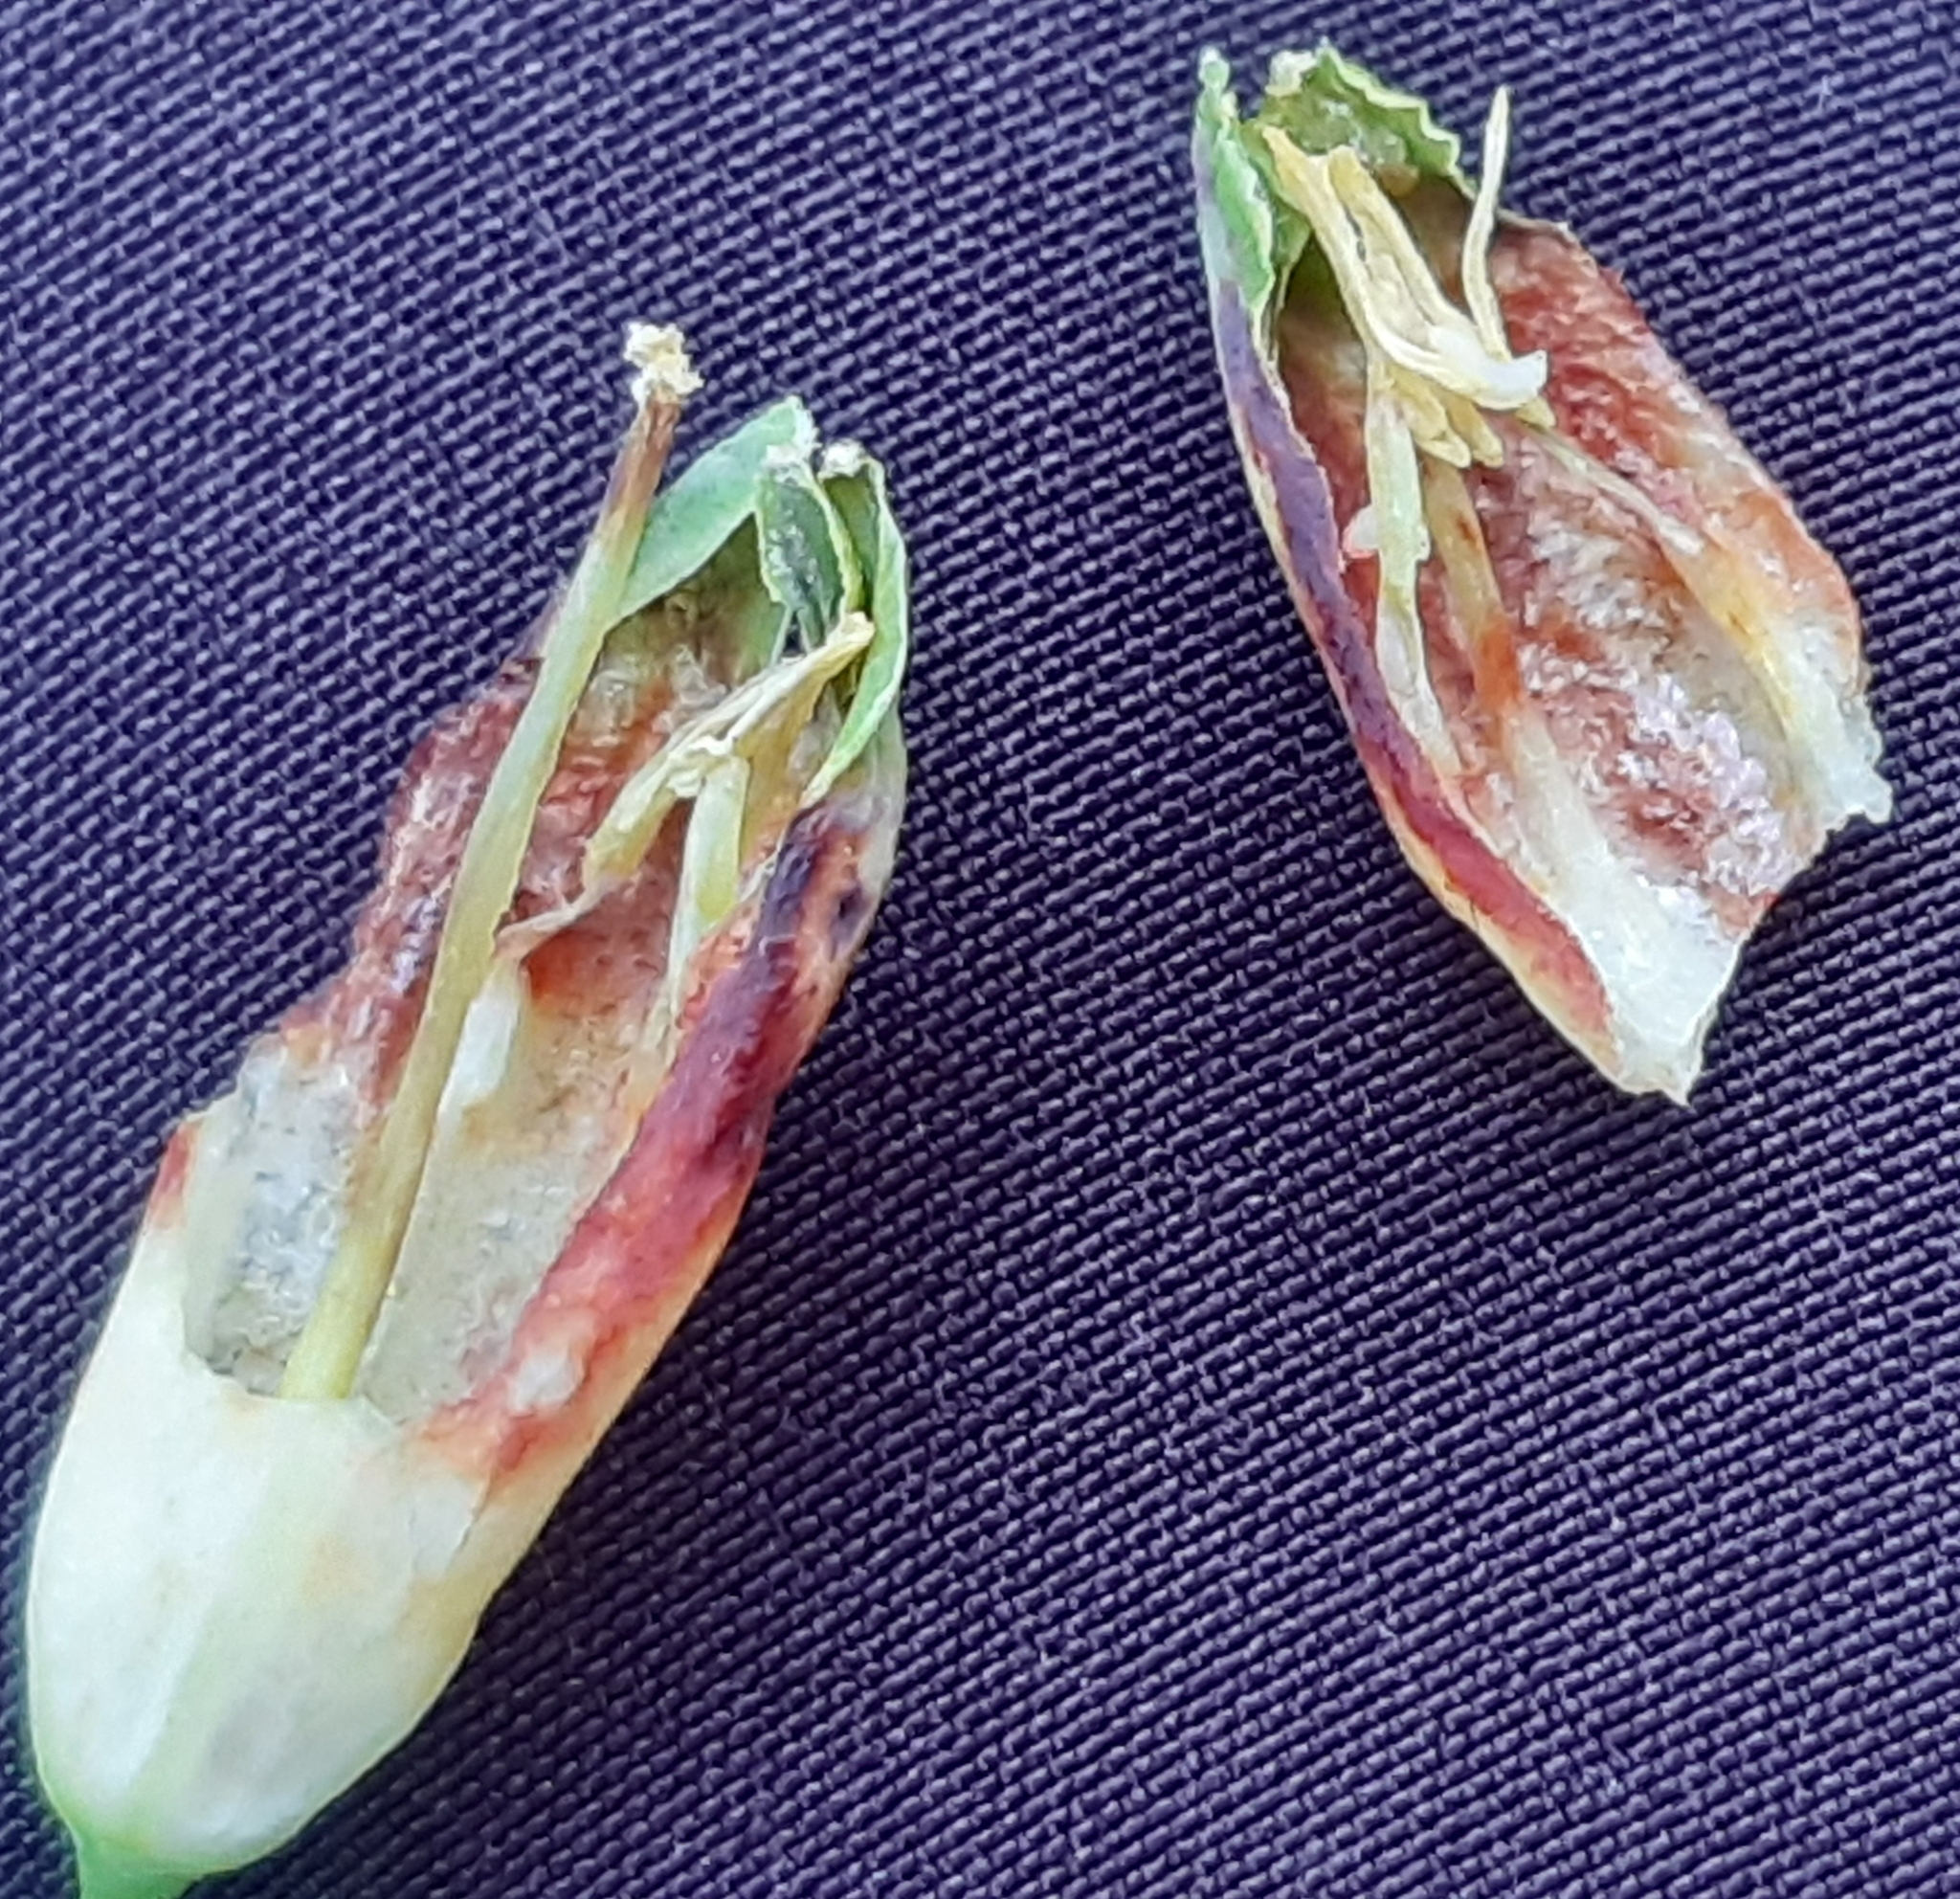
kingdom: Animalia
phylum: Arthropoda
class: Insecta
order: Diptera
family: Cecidomyiidae
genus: Contarinia
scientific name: Contarinia polygonati
